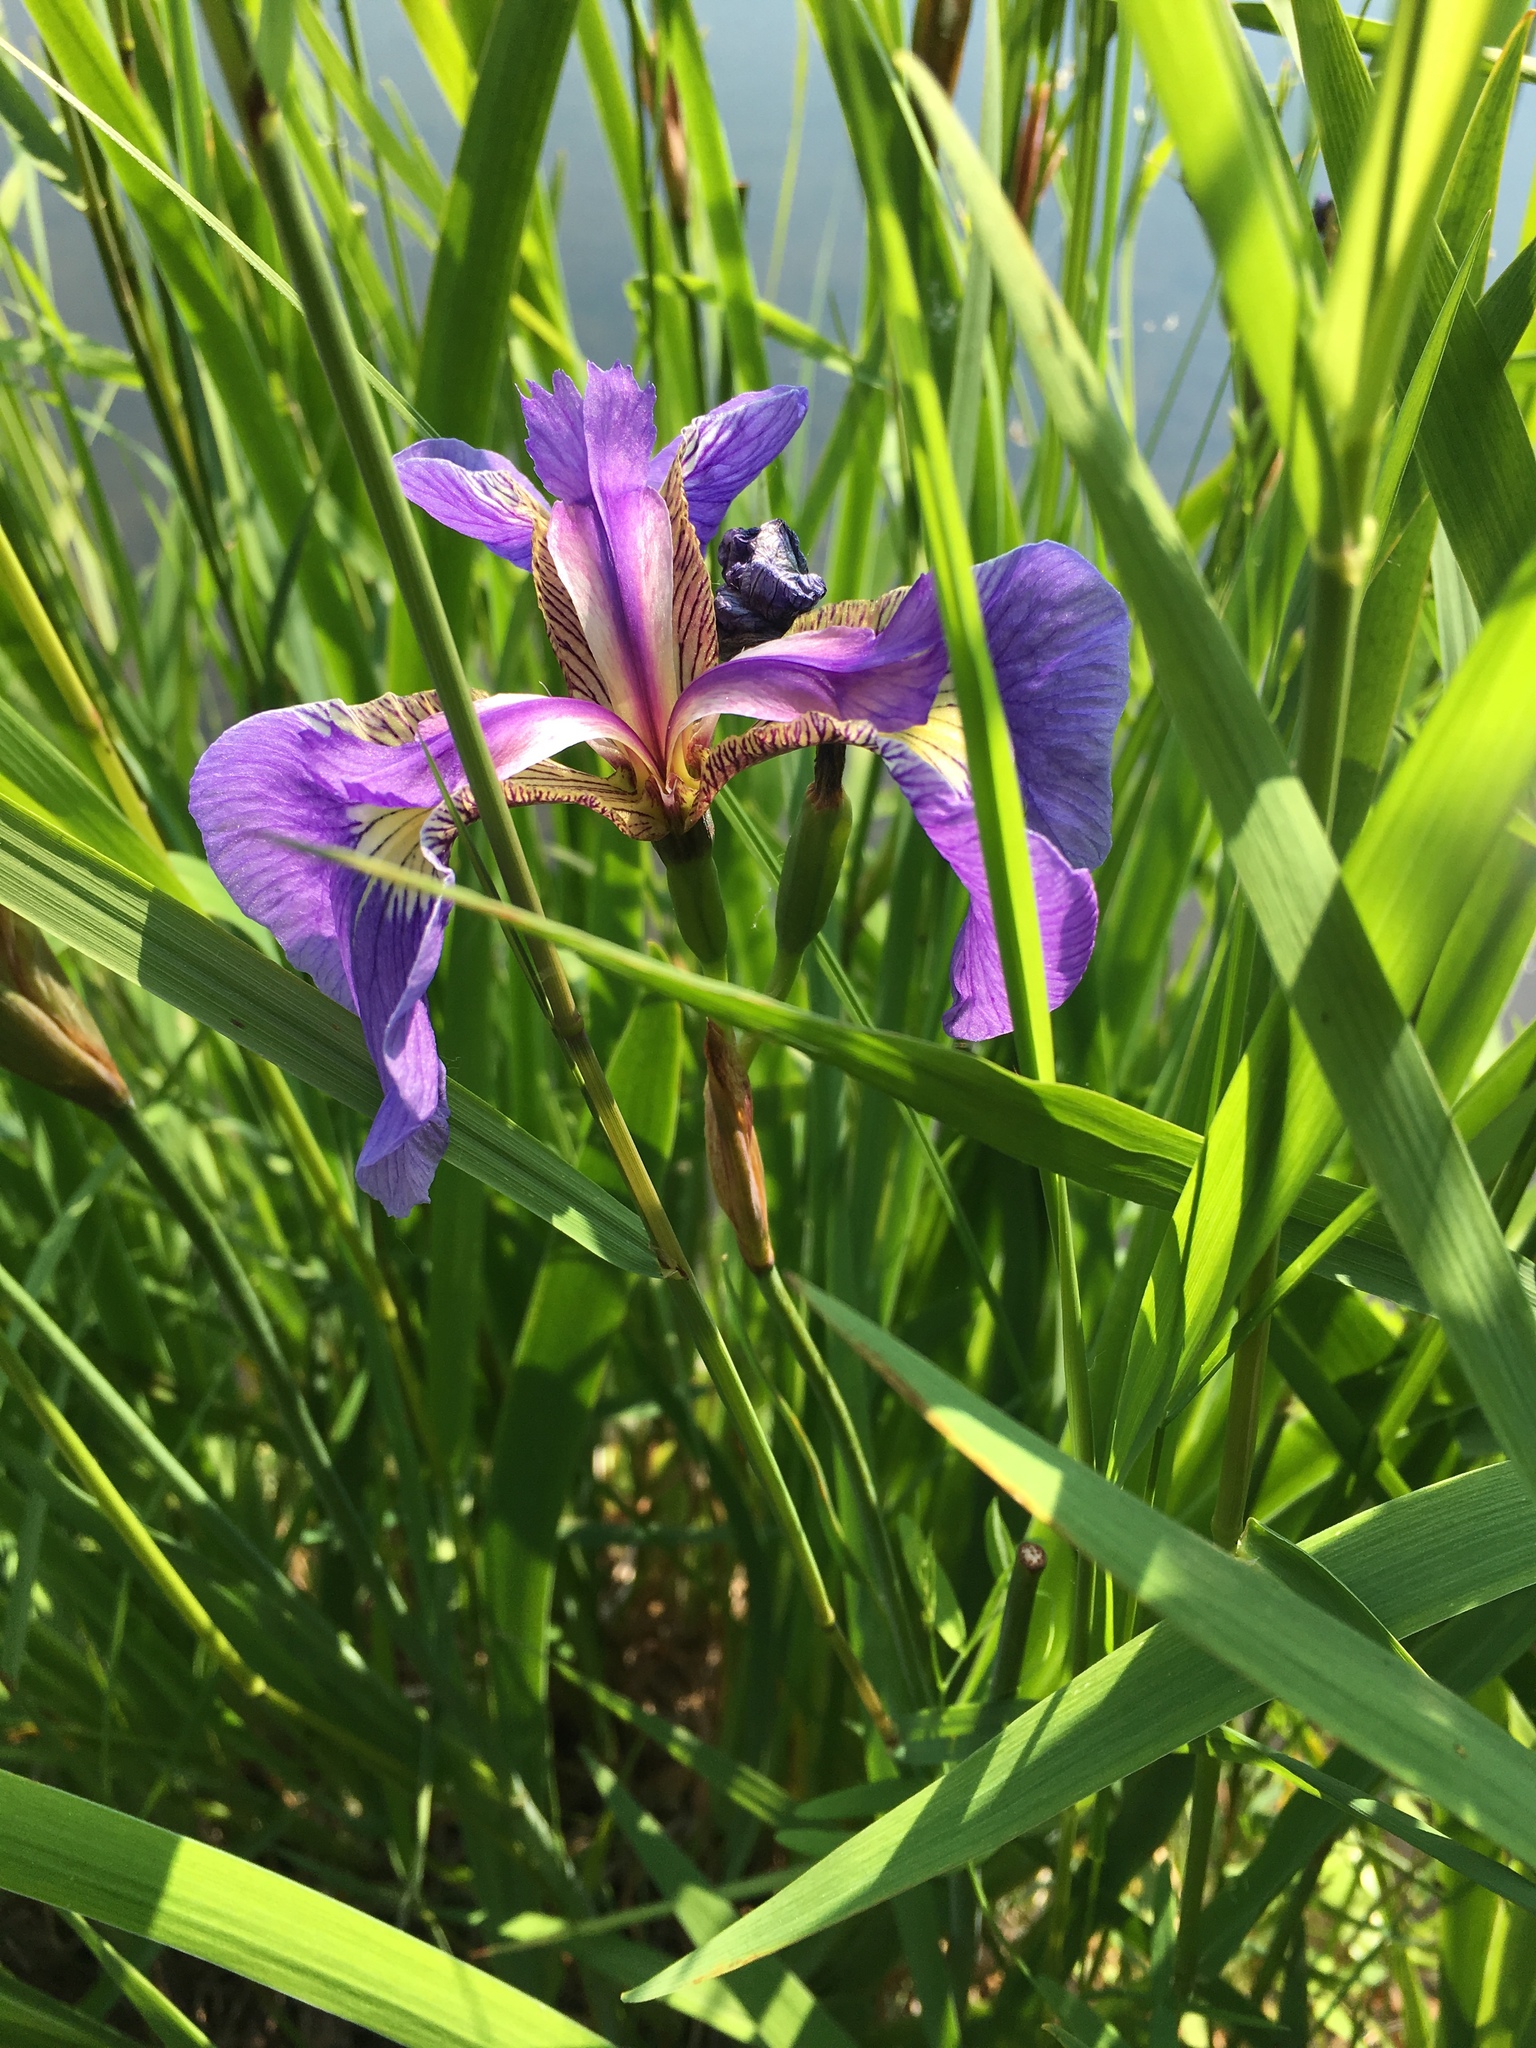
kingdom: Plantae
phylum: Tracheophyta
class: Liliopsida
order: Asparagales
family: Iridaceae
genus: Iris
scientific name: Iris setosa
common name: Arctic blue flag
